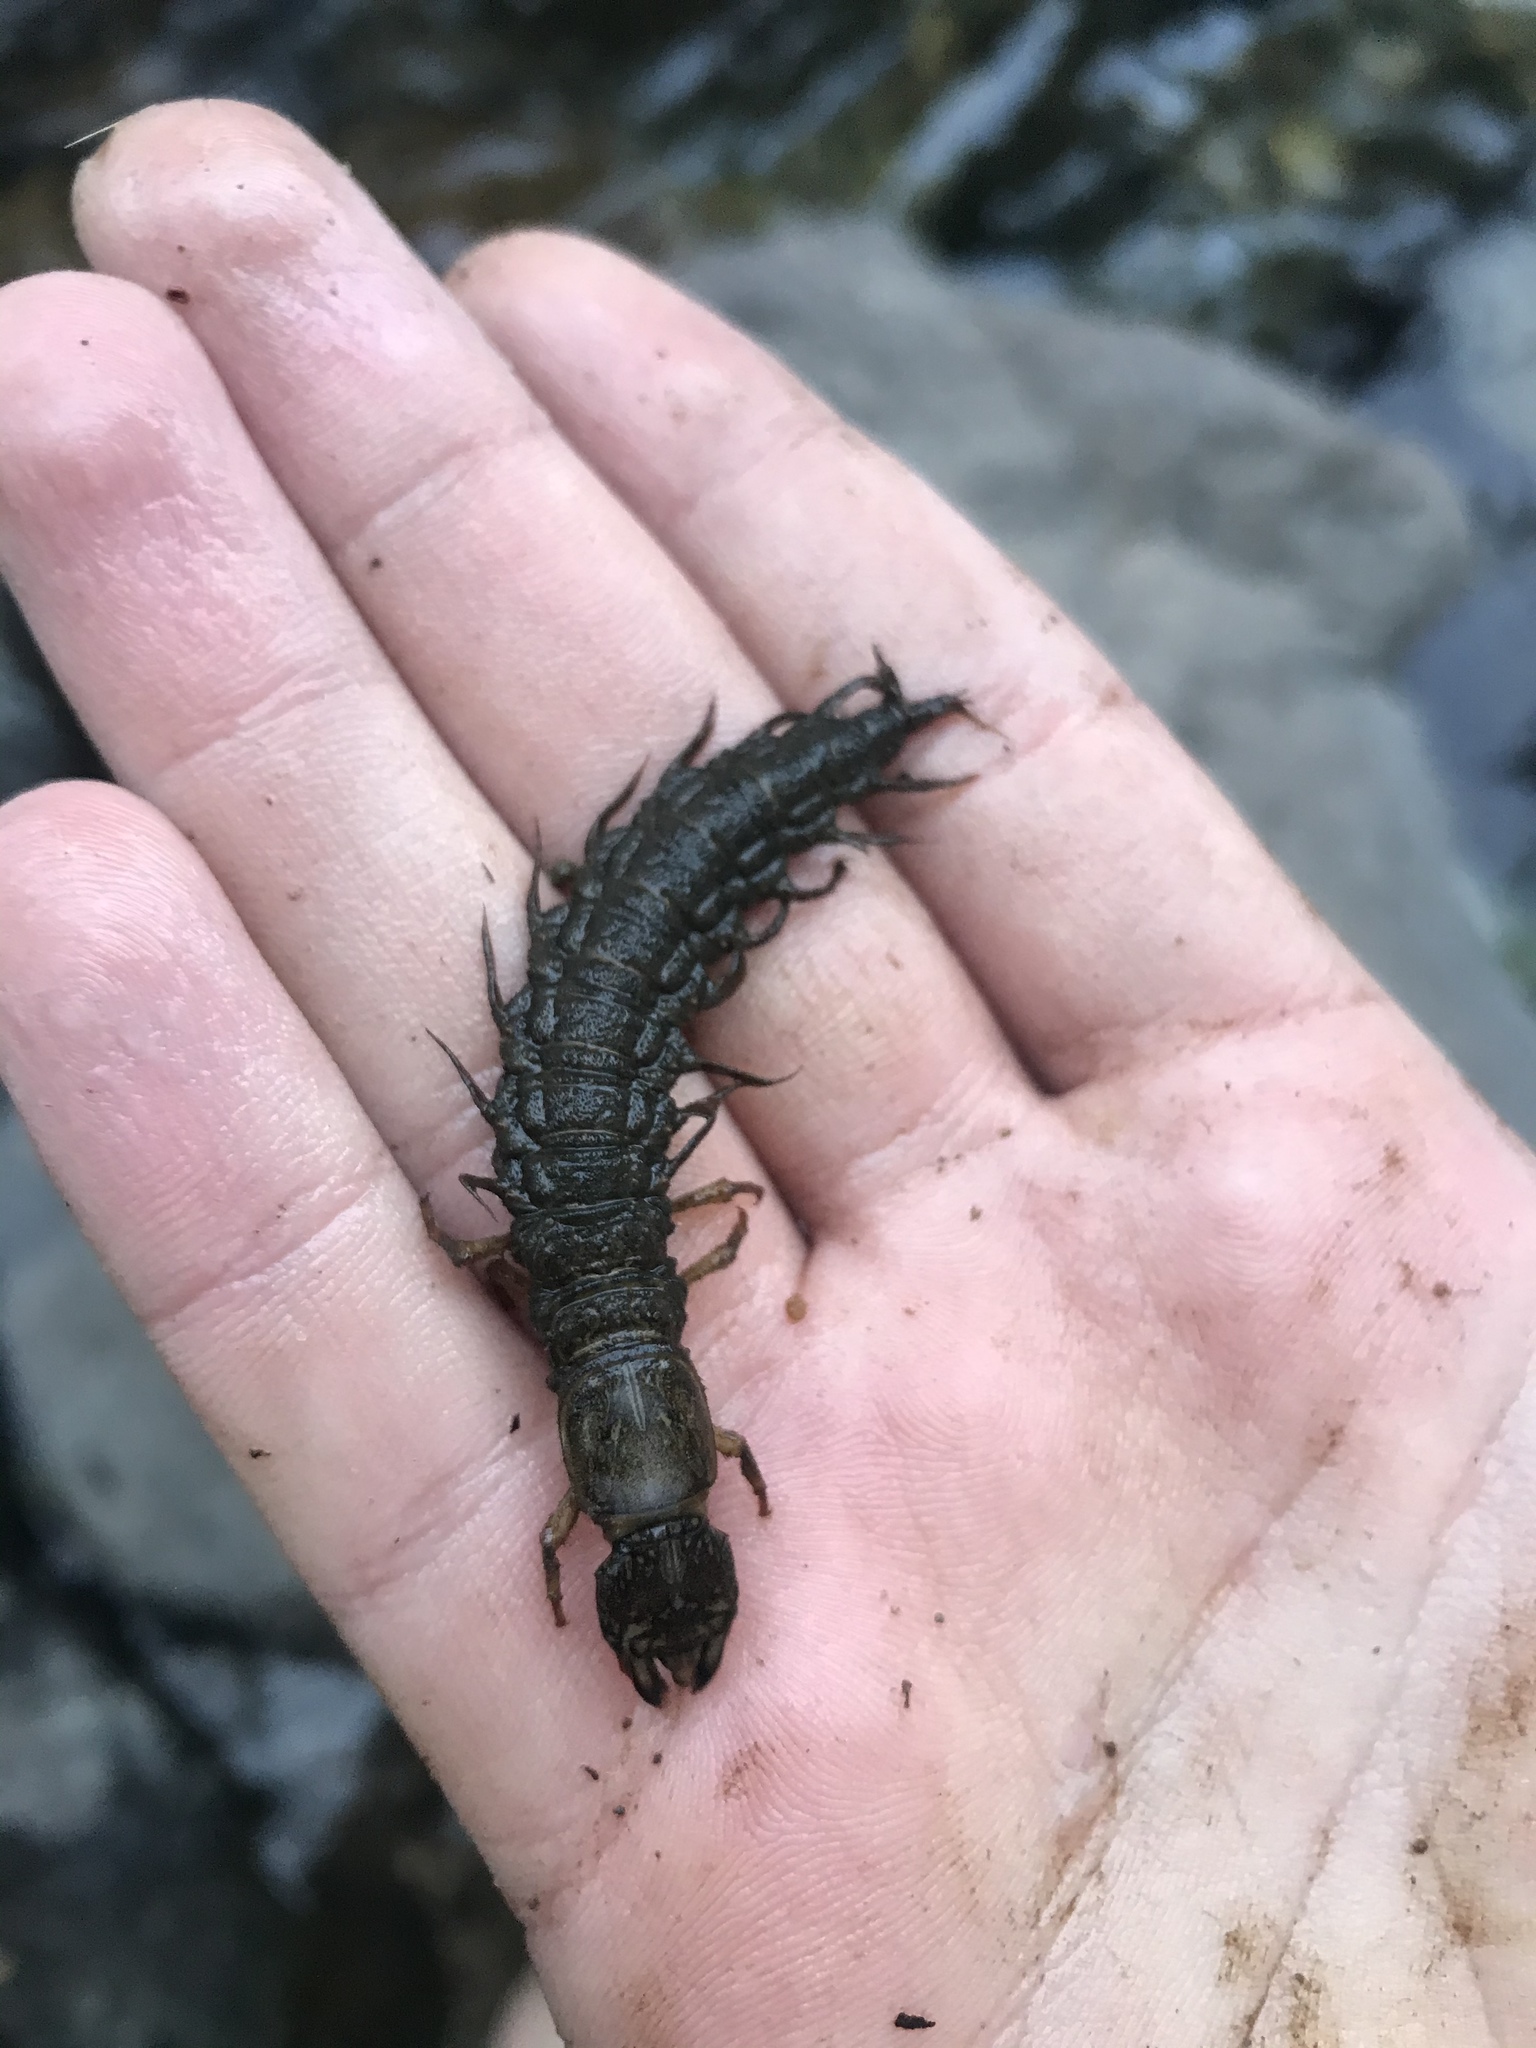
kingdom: Animalia
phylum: Arthropoda
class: Insecta
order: Megaloptera
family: Corydalidae
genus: Corydalus
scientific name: Corydalus texanus
